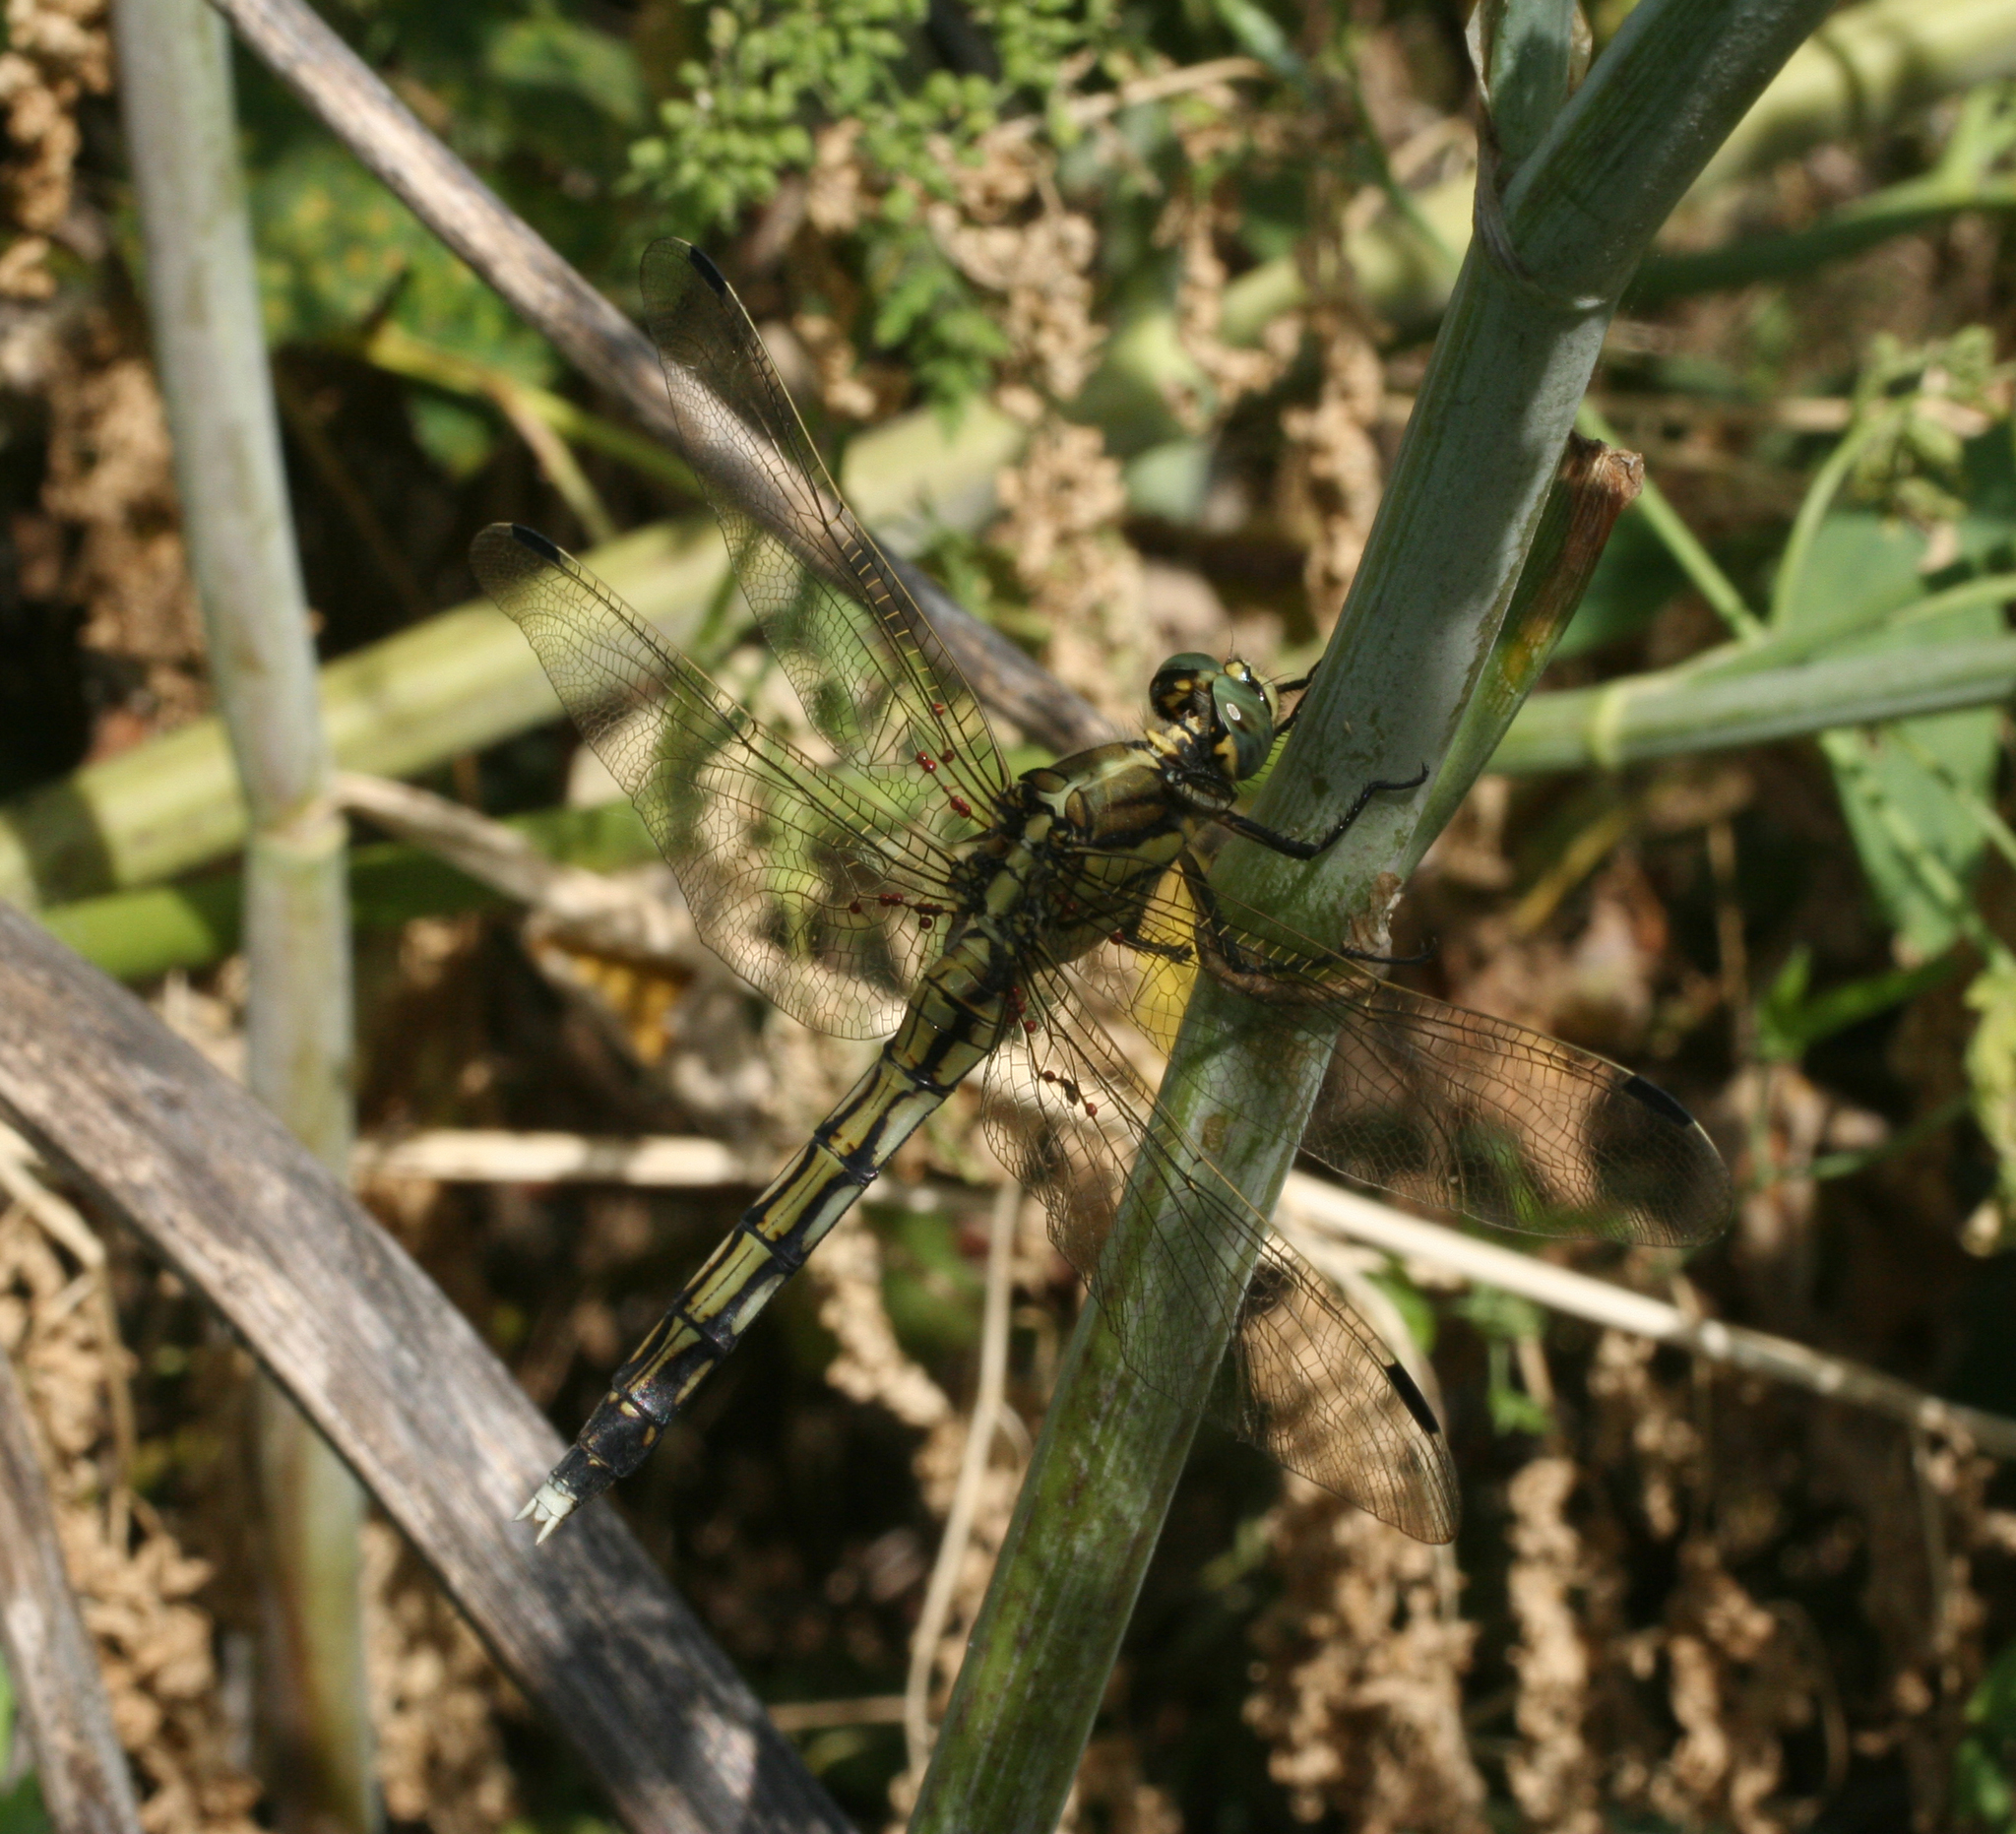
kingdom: Animalia
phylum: Arthropoda
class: Insecta
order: Odonata
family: Libellulidae
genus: Orthetrum
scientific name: Orthetrum albistylum
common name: White-tailed skimmer
